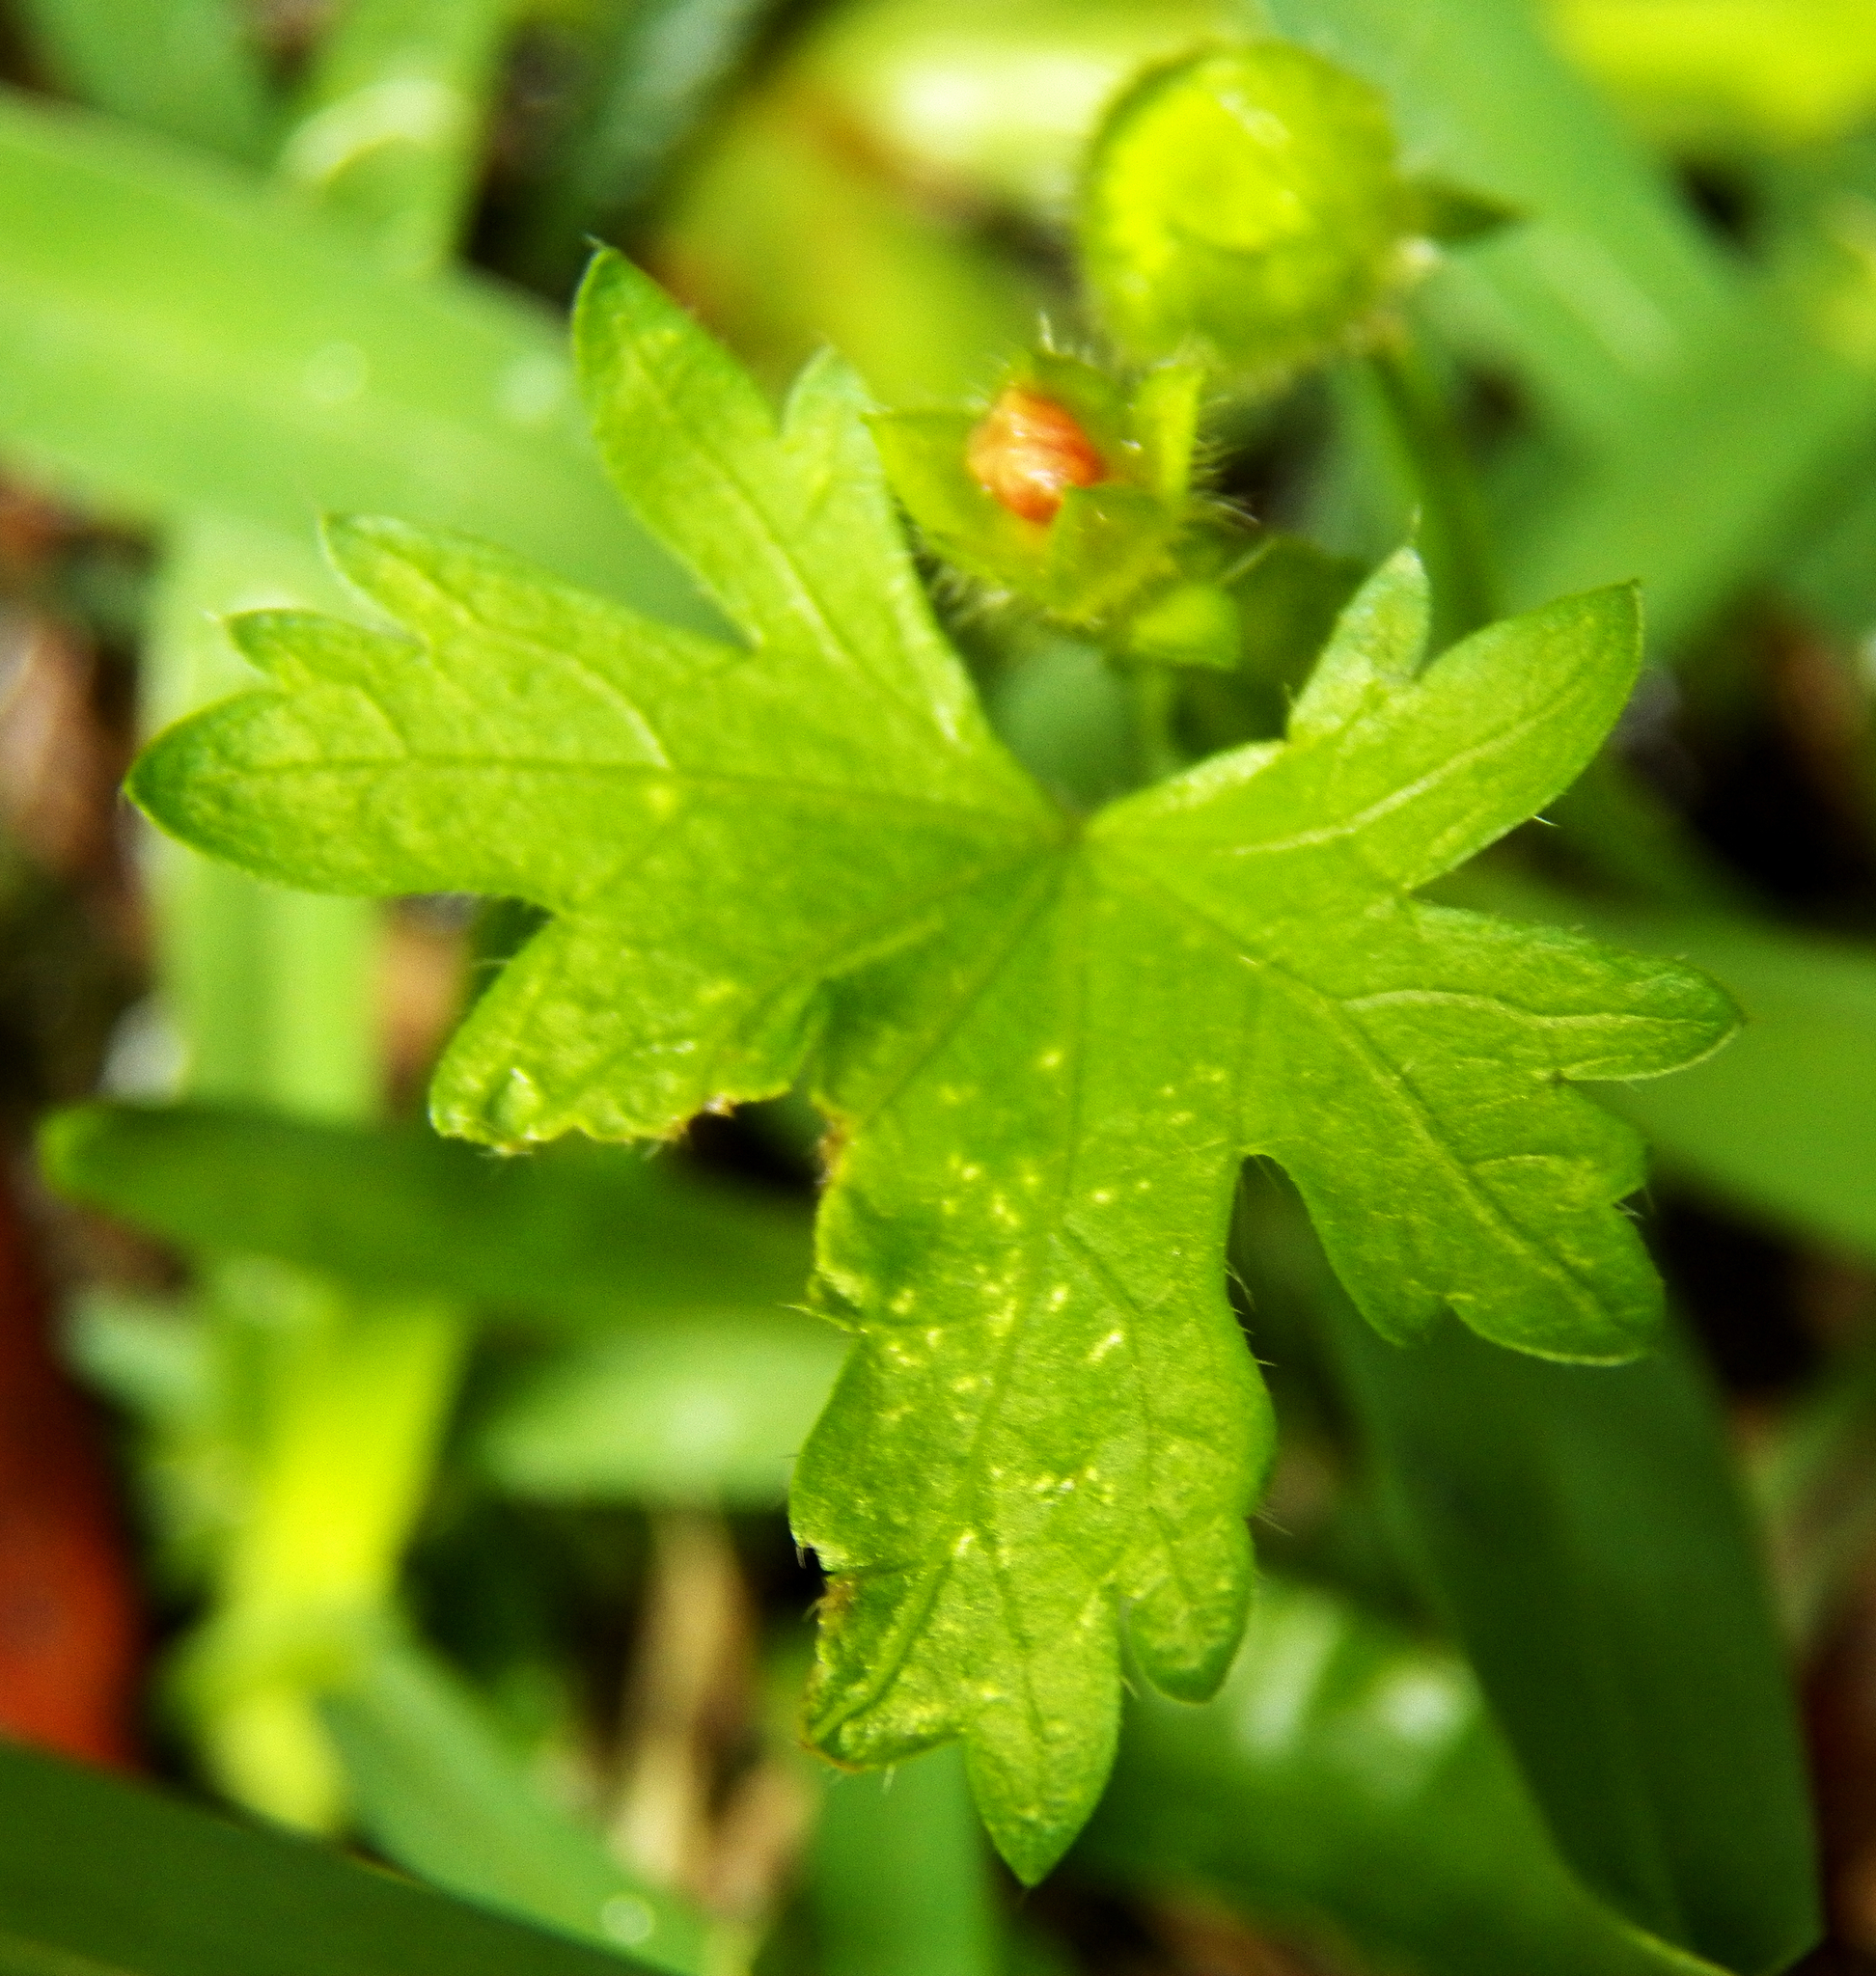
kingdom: Plantae
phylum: Tracheophyta
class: Magnoliopsida
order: Malvales
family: Malvaceae
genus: Modiola
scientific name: Modiola caroliniana
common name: Carolina bristlemallow
